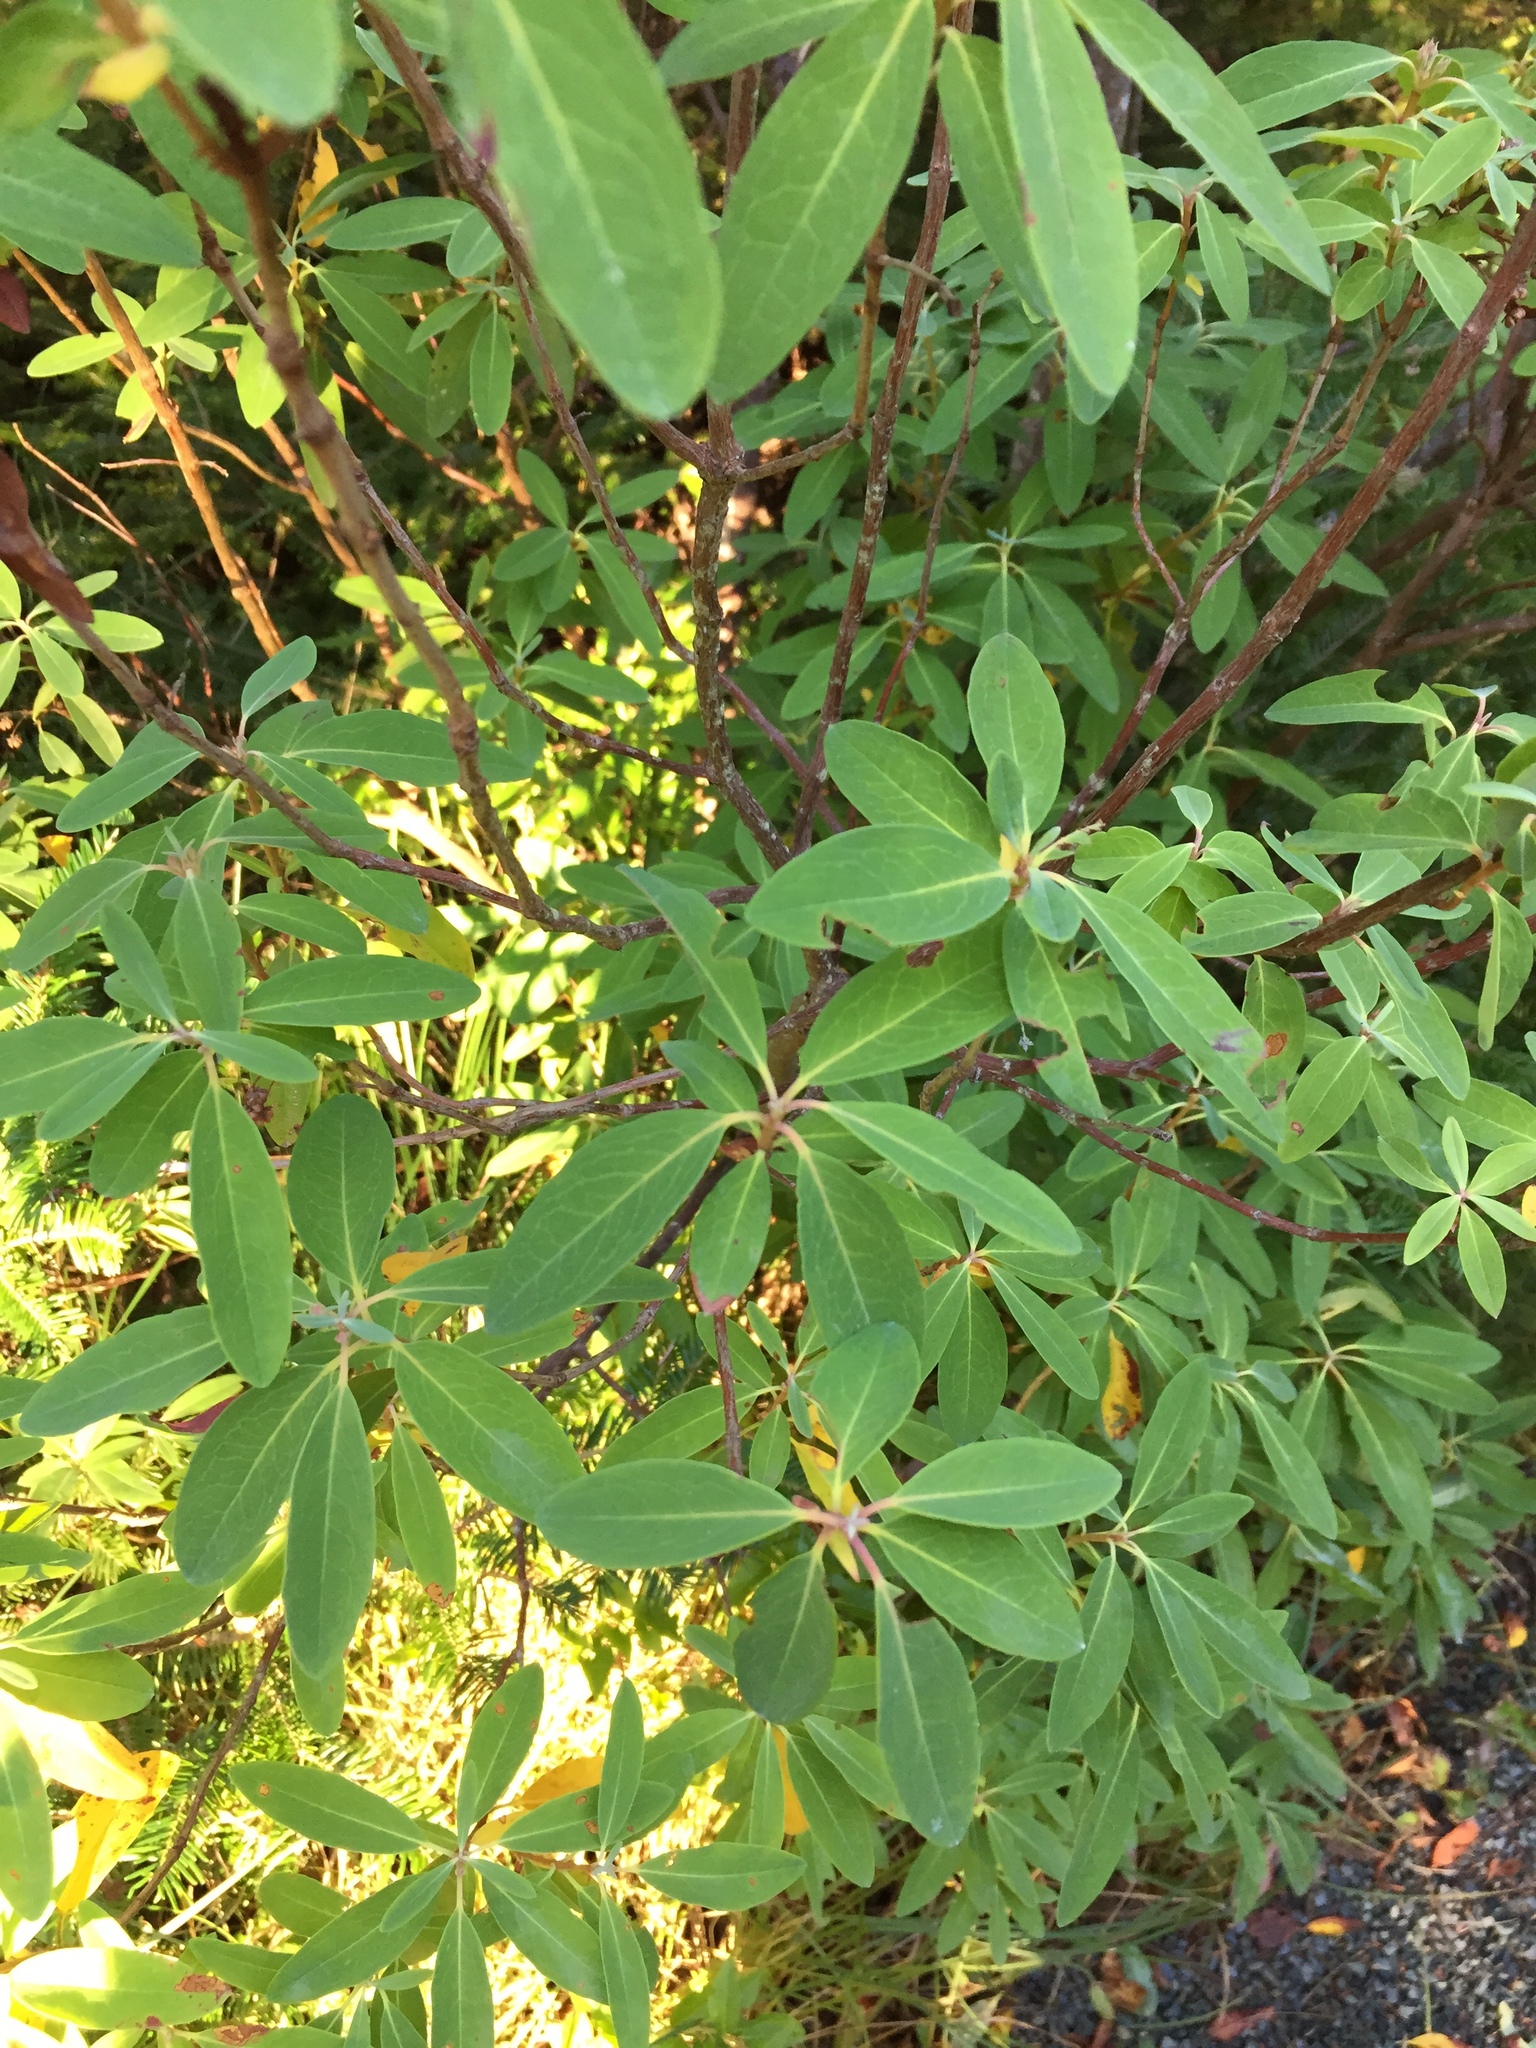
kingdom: Plantae
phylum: Tracheophyta
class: Magnoliopsida
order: Ericales
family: Ericaceae
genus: Kalmia
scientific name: Kalmia angustifolia
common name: Sheep-laurel
